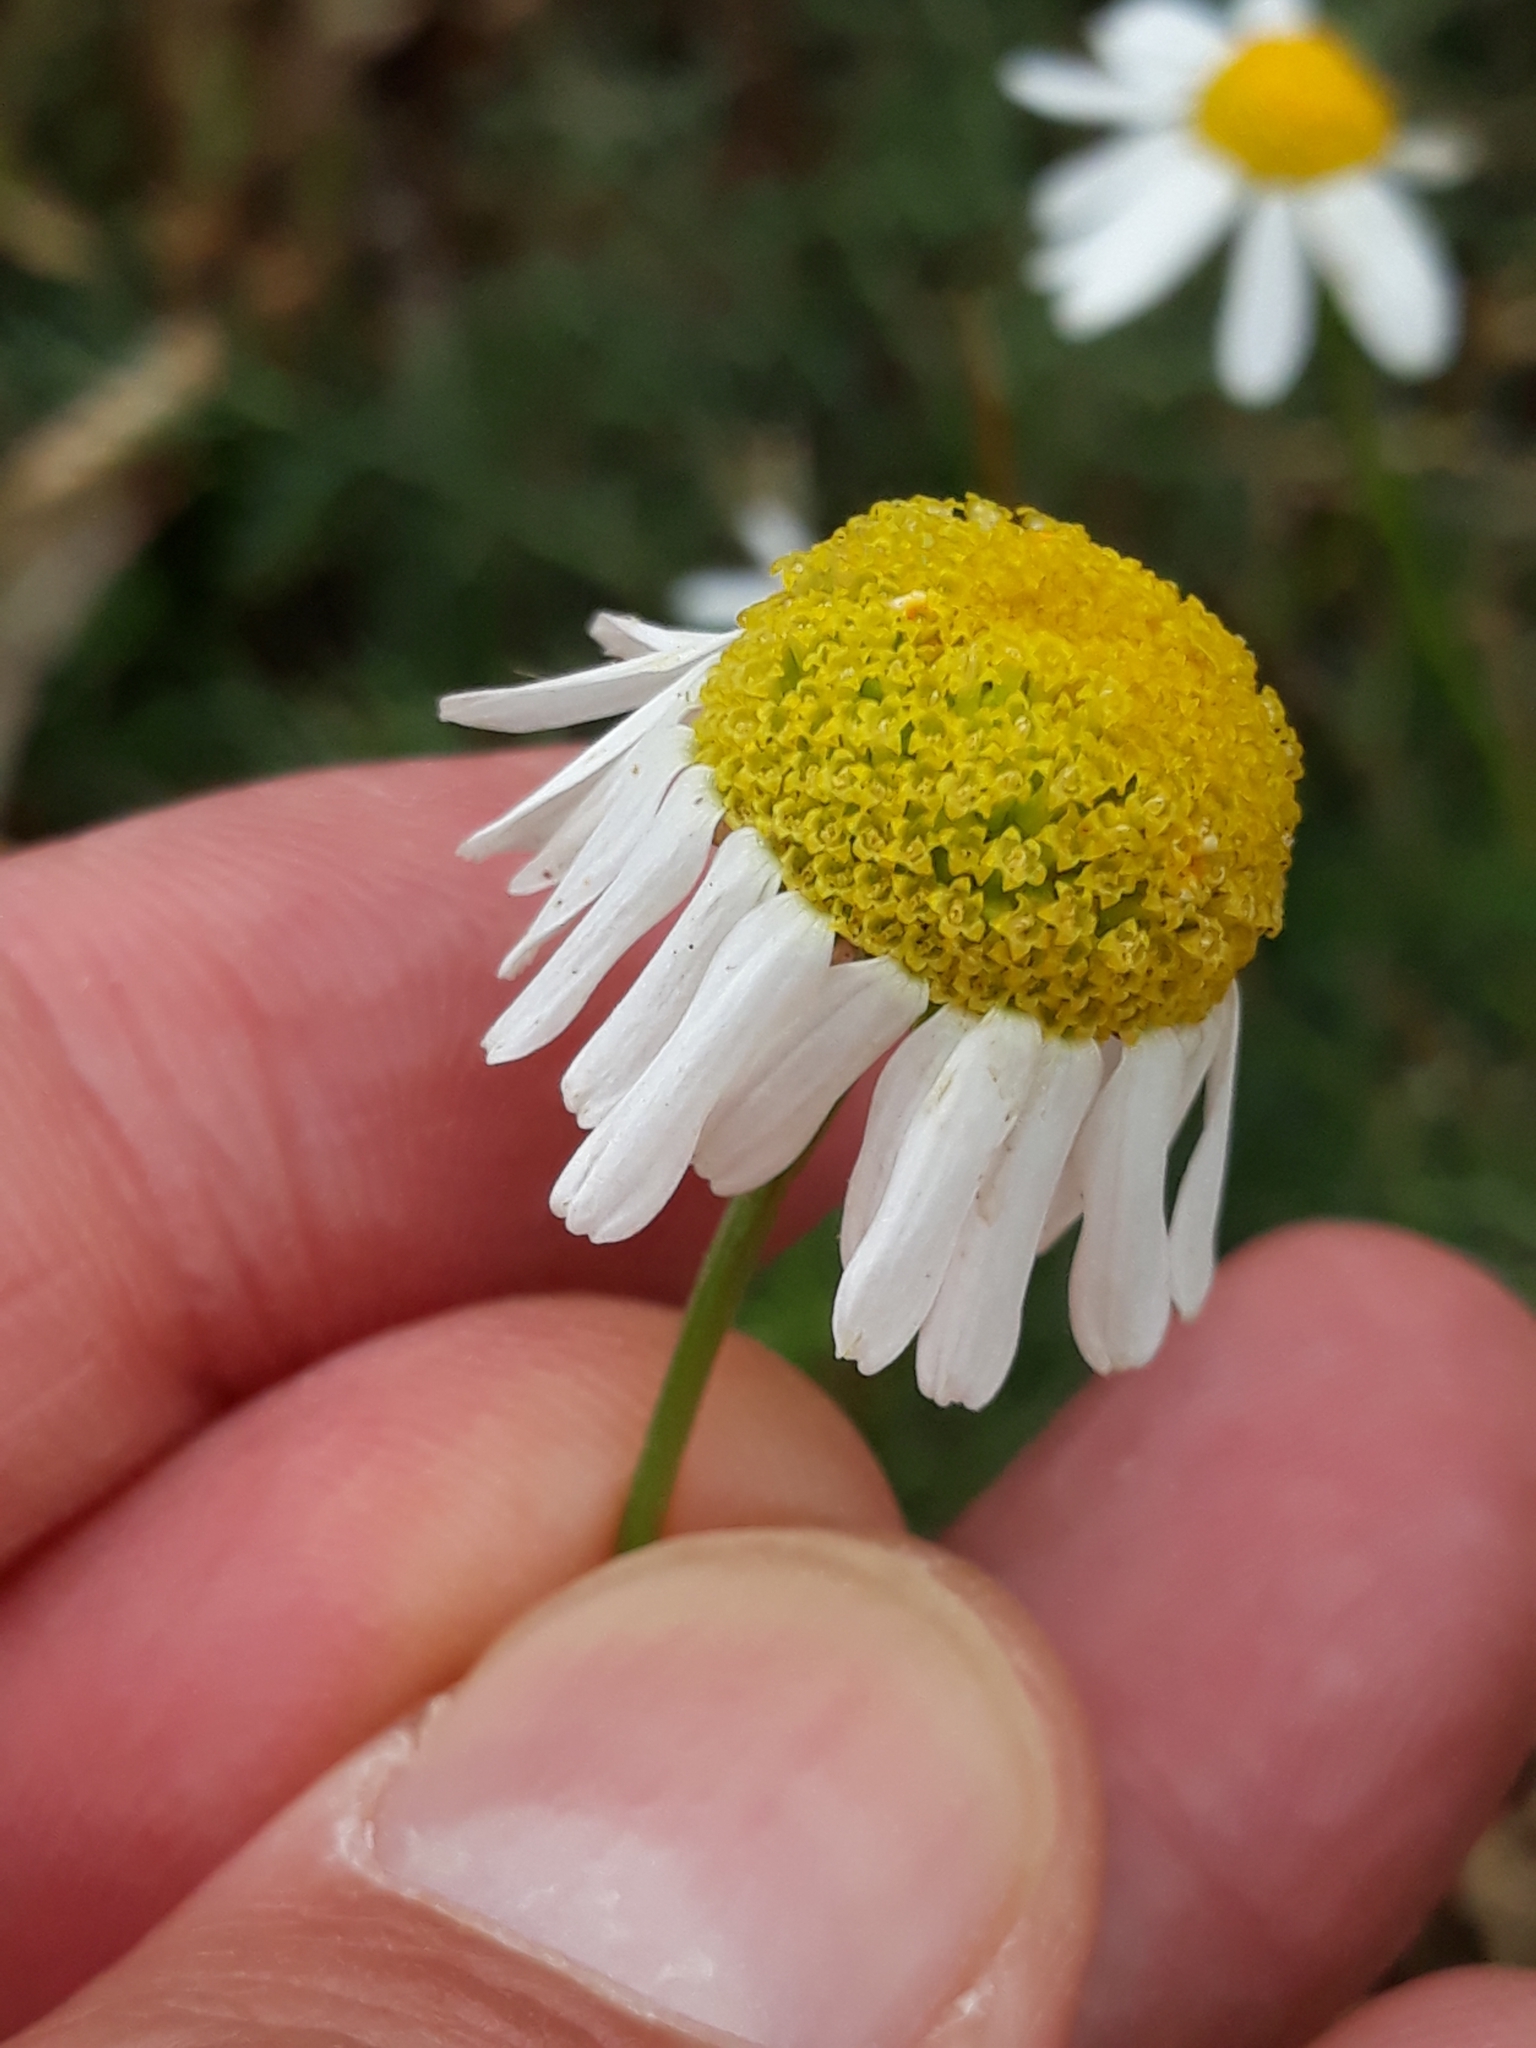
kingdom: Plantae
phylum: Tracheophyta
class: Magnoliopsida
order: Asterales
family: Asteraceae
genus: Tripleurospermum
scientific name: Tripleurospermum inodorum
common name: Scentless mayweed
